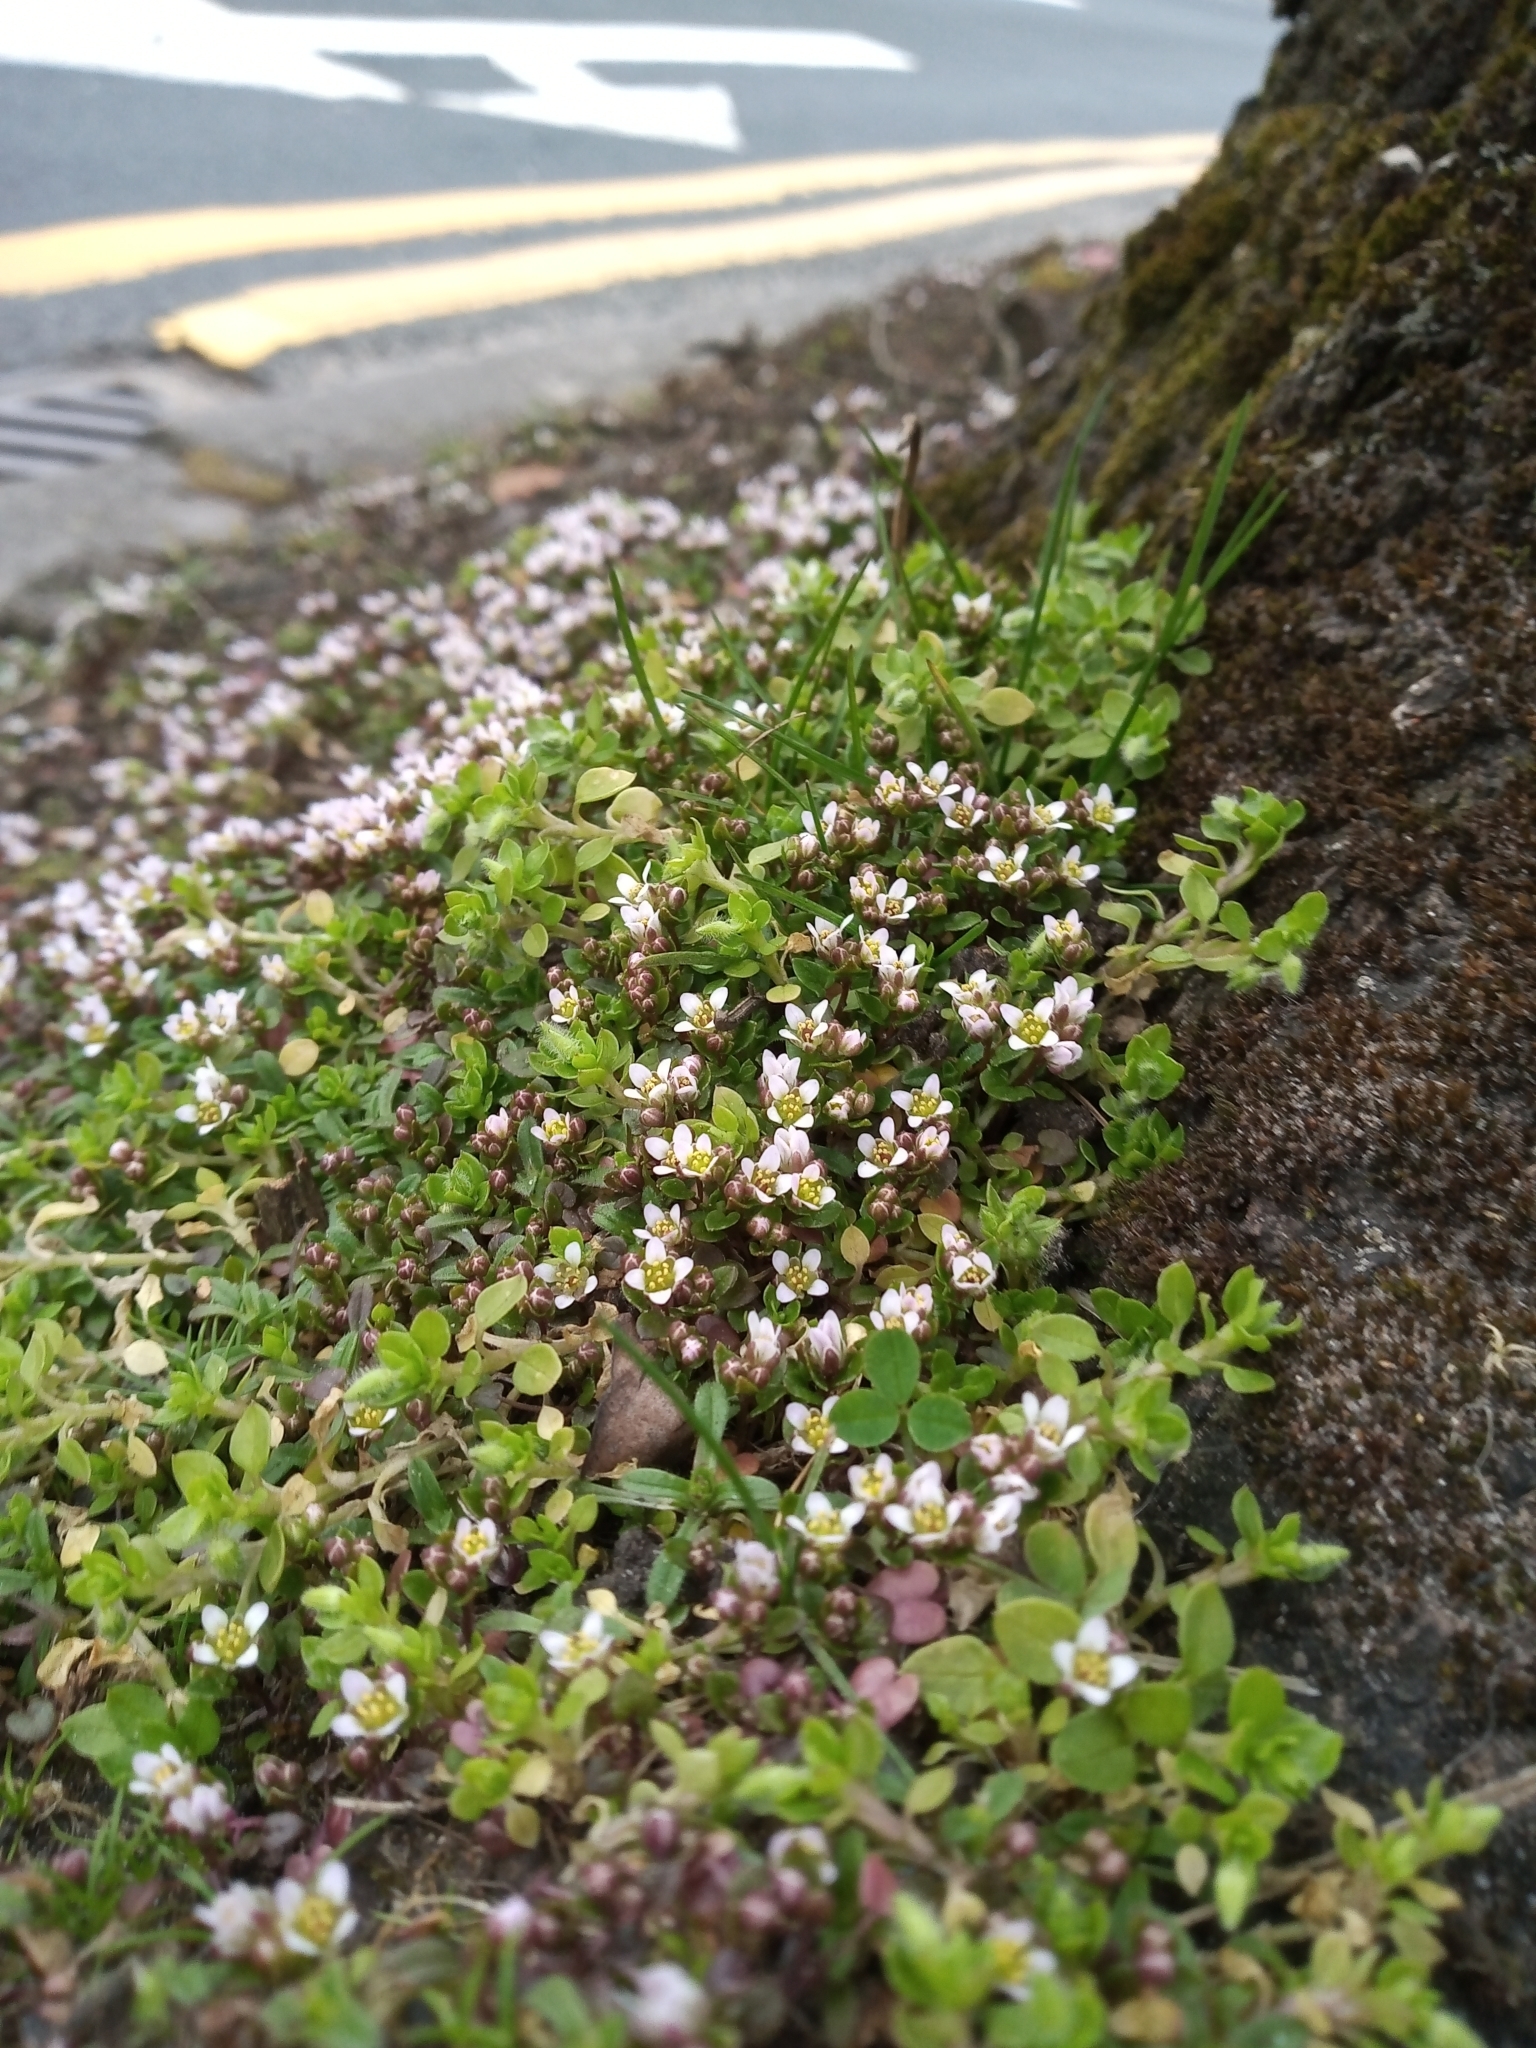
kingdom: Plantae
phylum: Tracheophyta
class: Magnoliopsida
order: Brassicales
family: Brassicaceae
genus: Cochlearia
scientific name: Cochlearia danica
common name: Early scurvygrass
